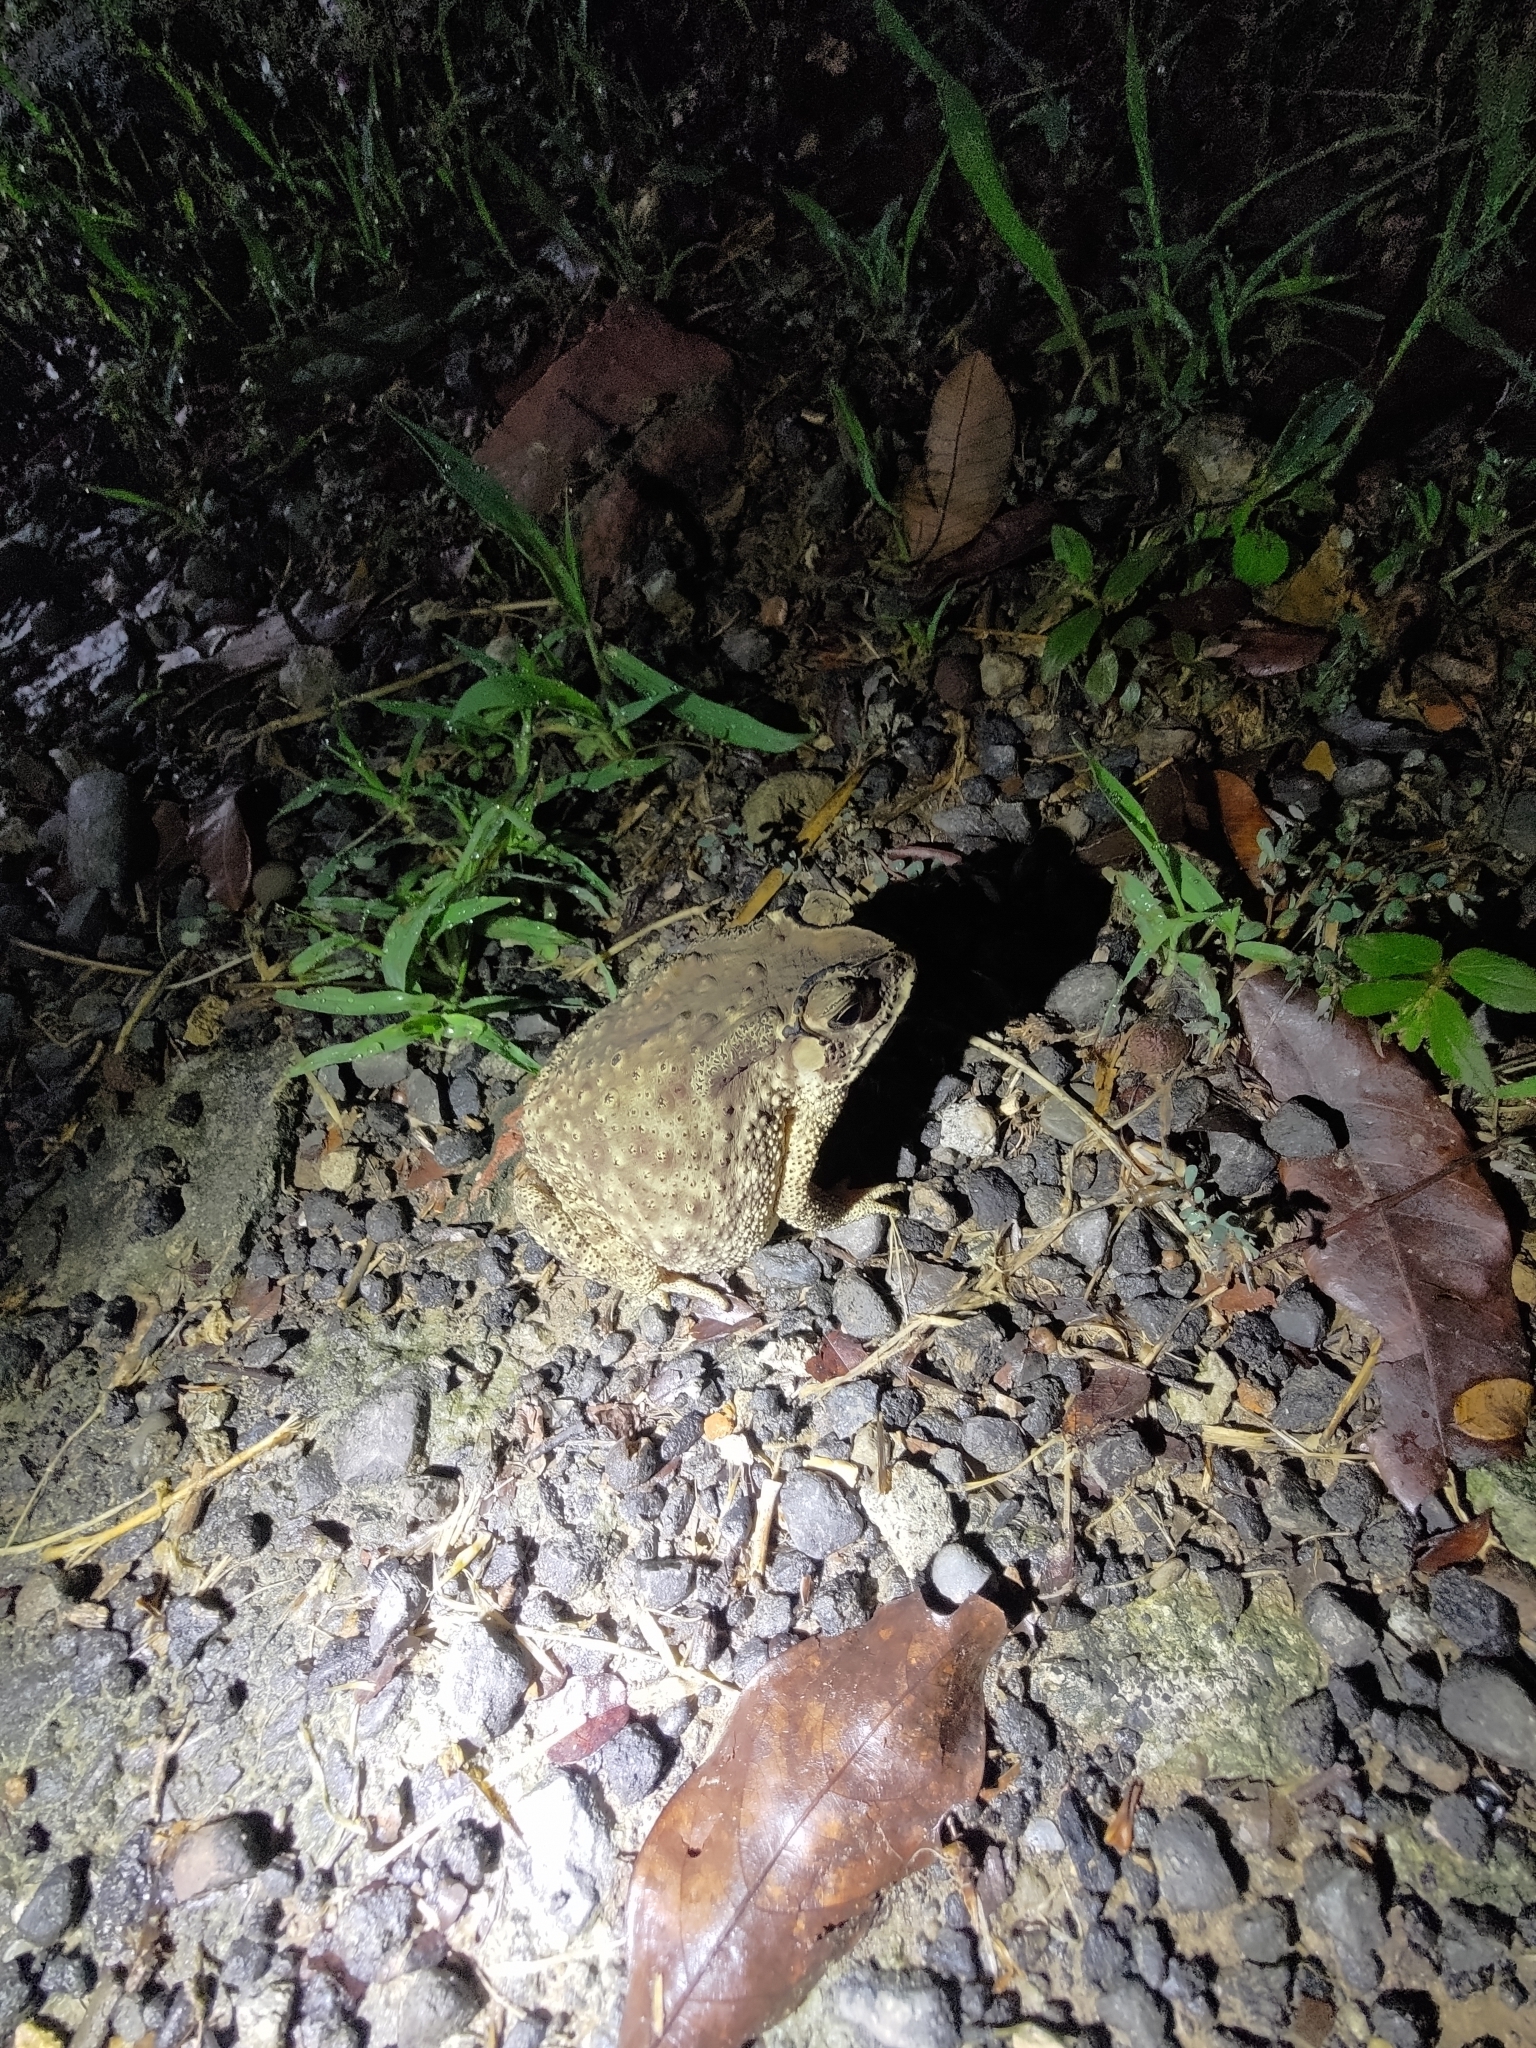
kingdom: Animalia
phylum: Chordata
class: Amphibia
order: Anura
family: Bufonidae
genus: Duttaphrynus
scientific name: Duttaphrynus melanostictus
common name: Common sunda toad
